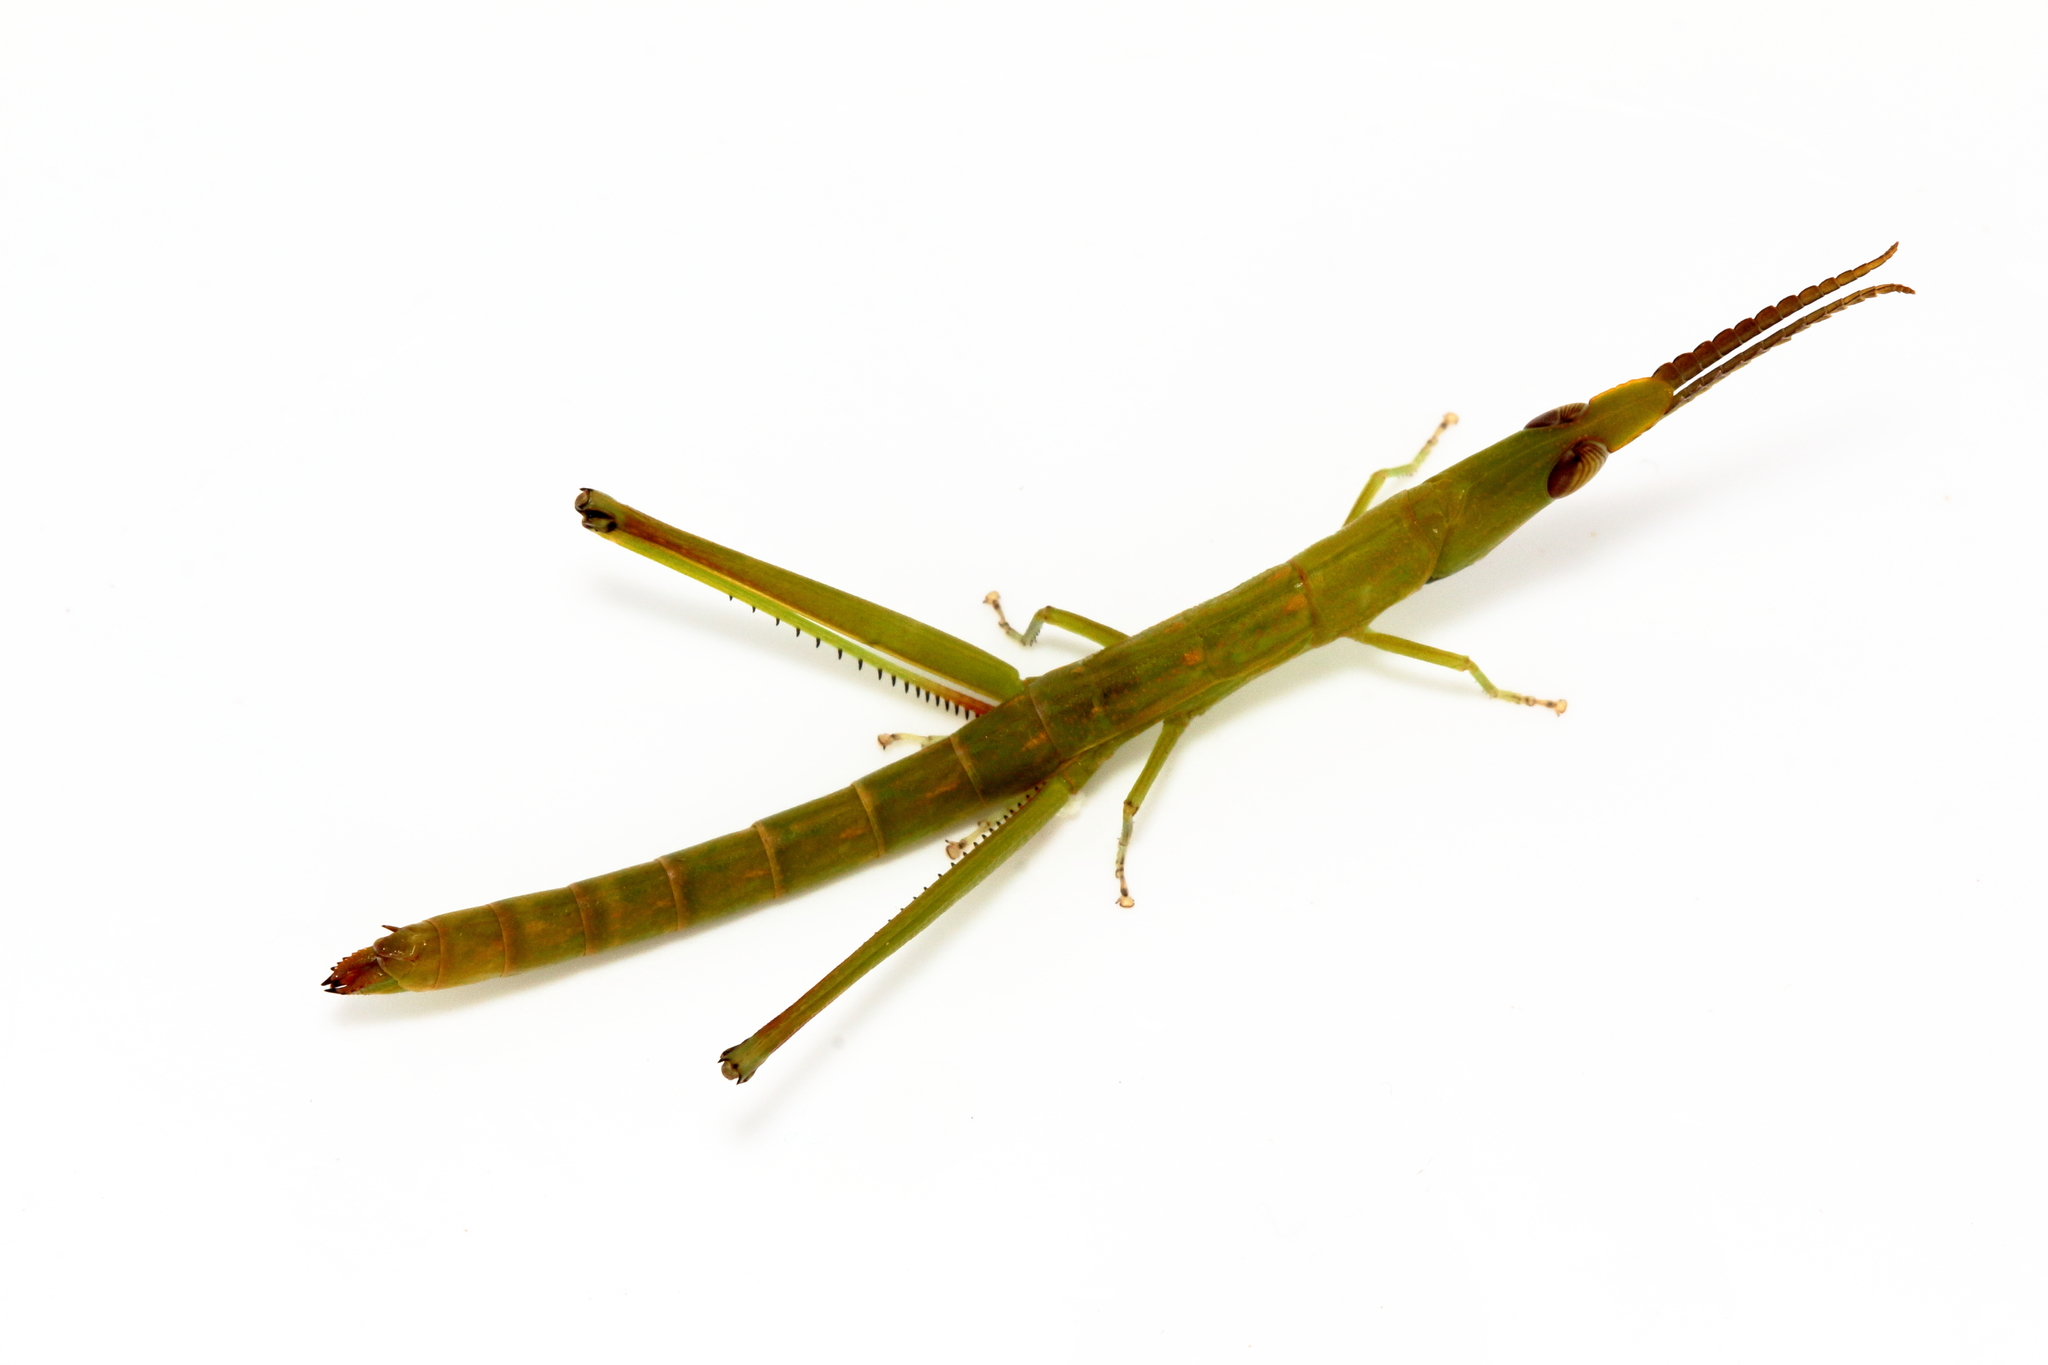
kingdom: Animalia
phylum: Arthropoda
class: Insecta
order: Orthoptera
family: Morabidae
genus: Warramaba
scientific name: Warramaba grandis
